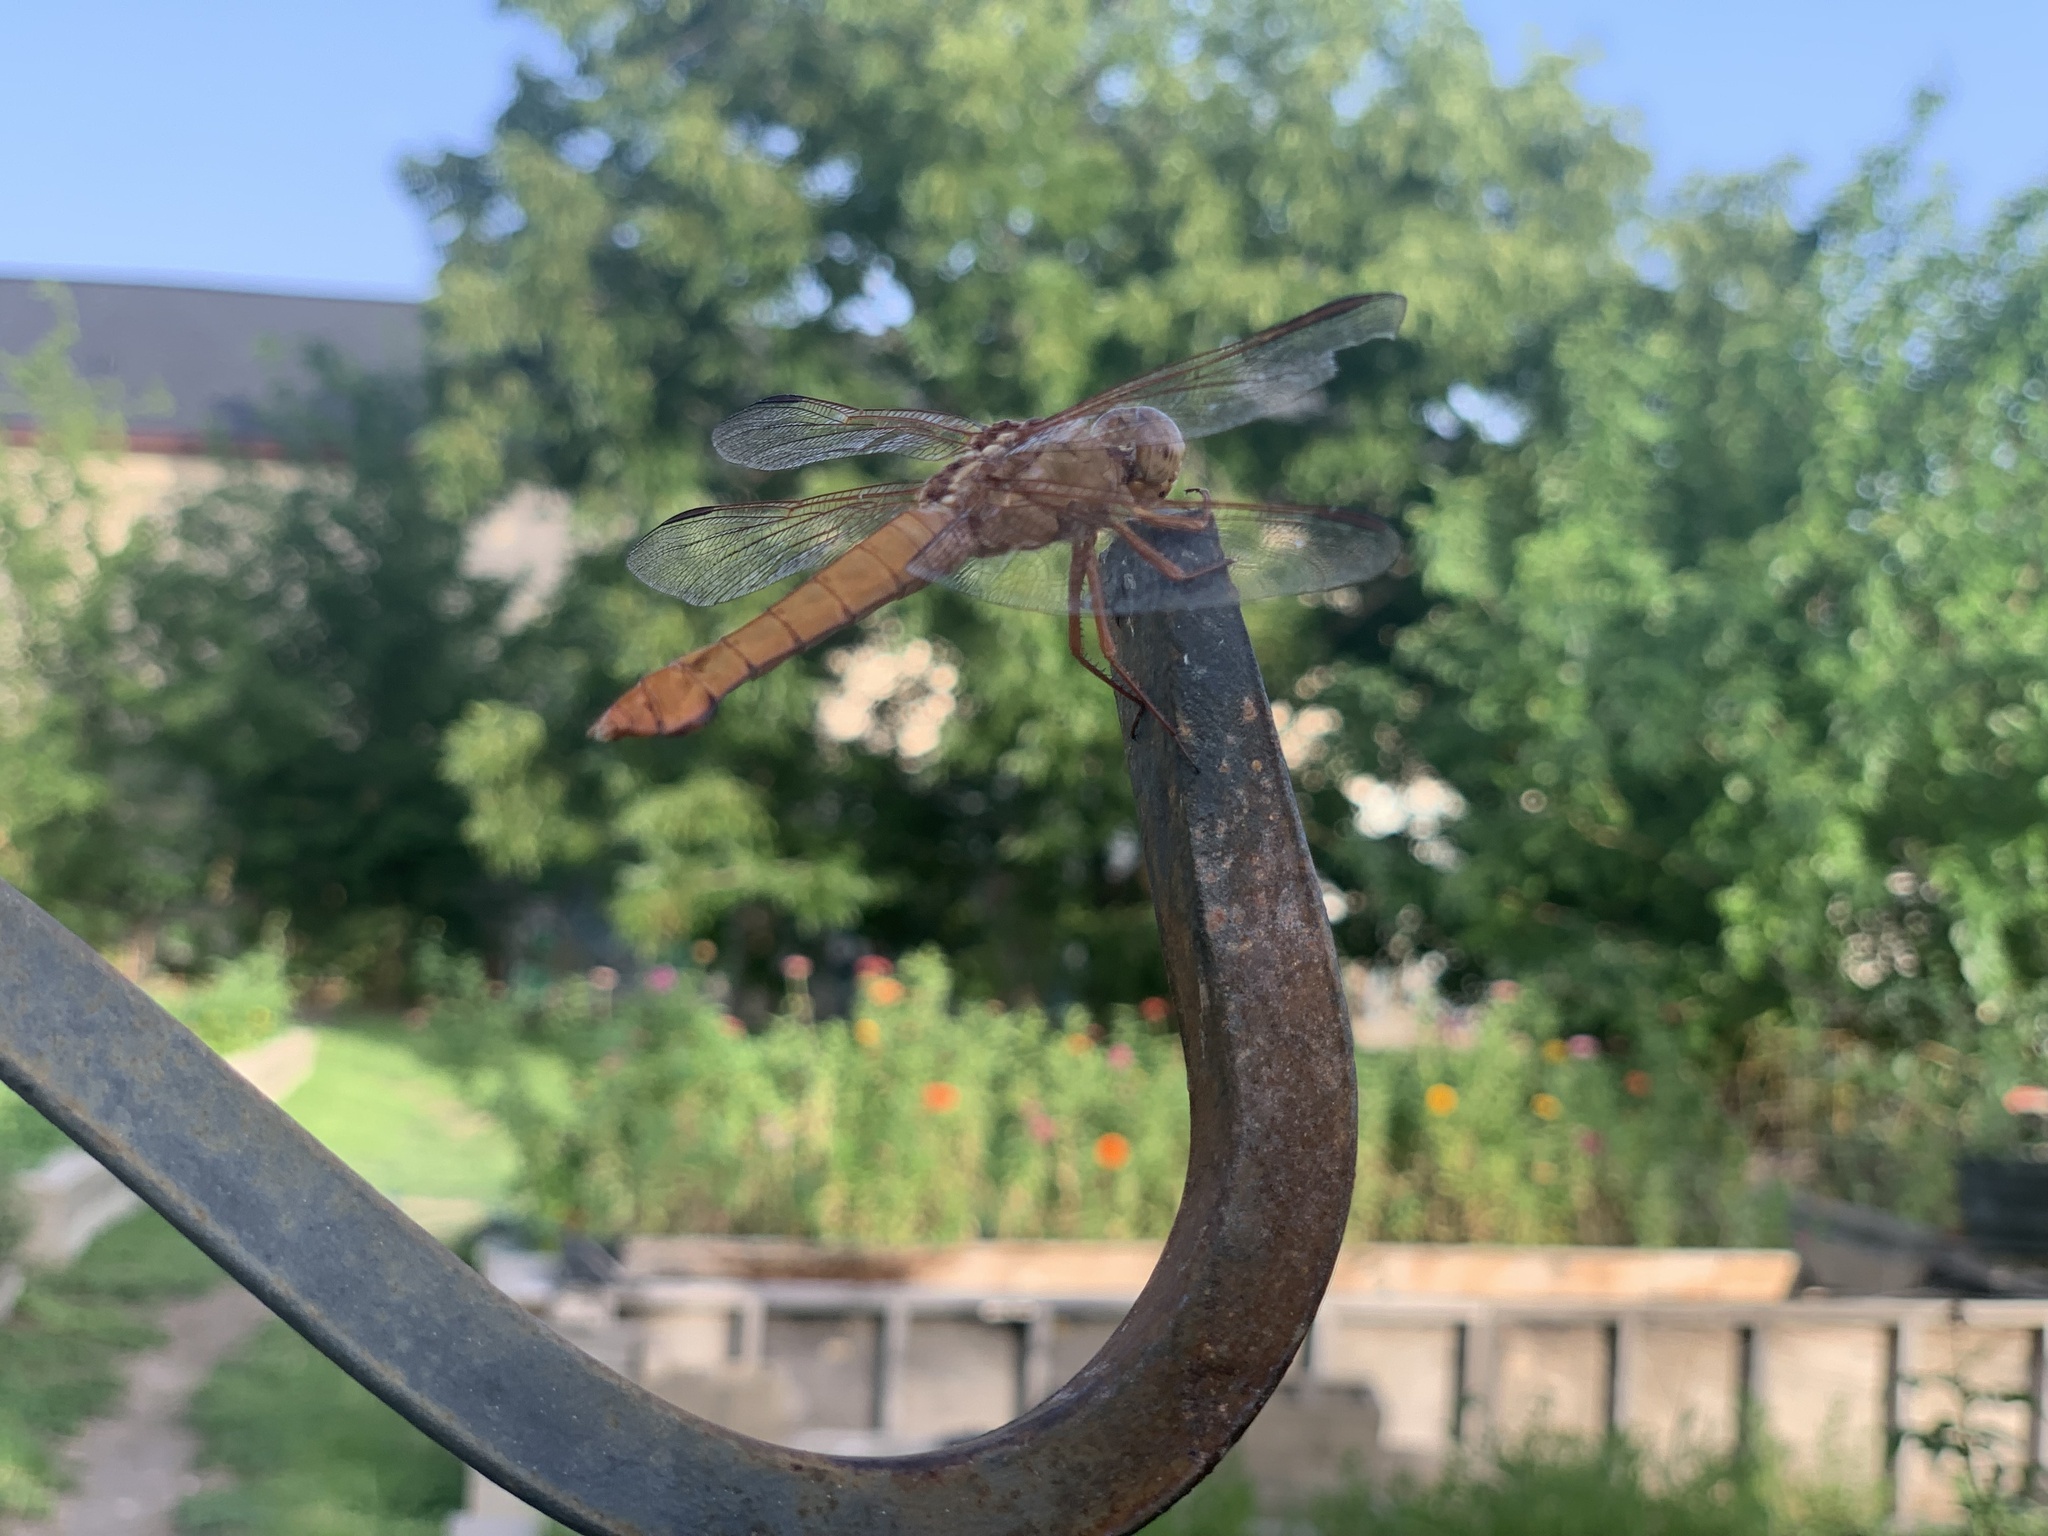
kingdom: Animalia
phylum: Arthropoda
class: Insecta
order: Odonata
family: Libellulidae
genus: Libellula
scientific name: Libellula croceipennis
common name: Neon skimmer
